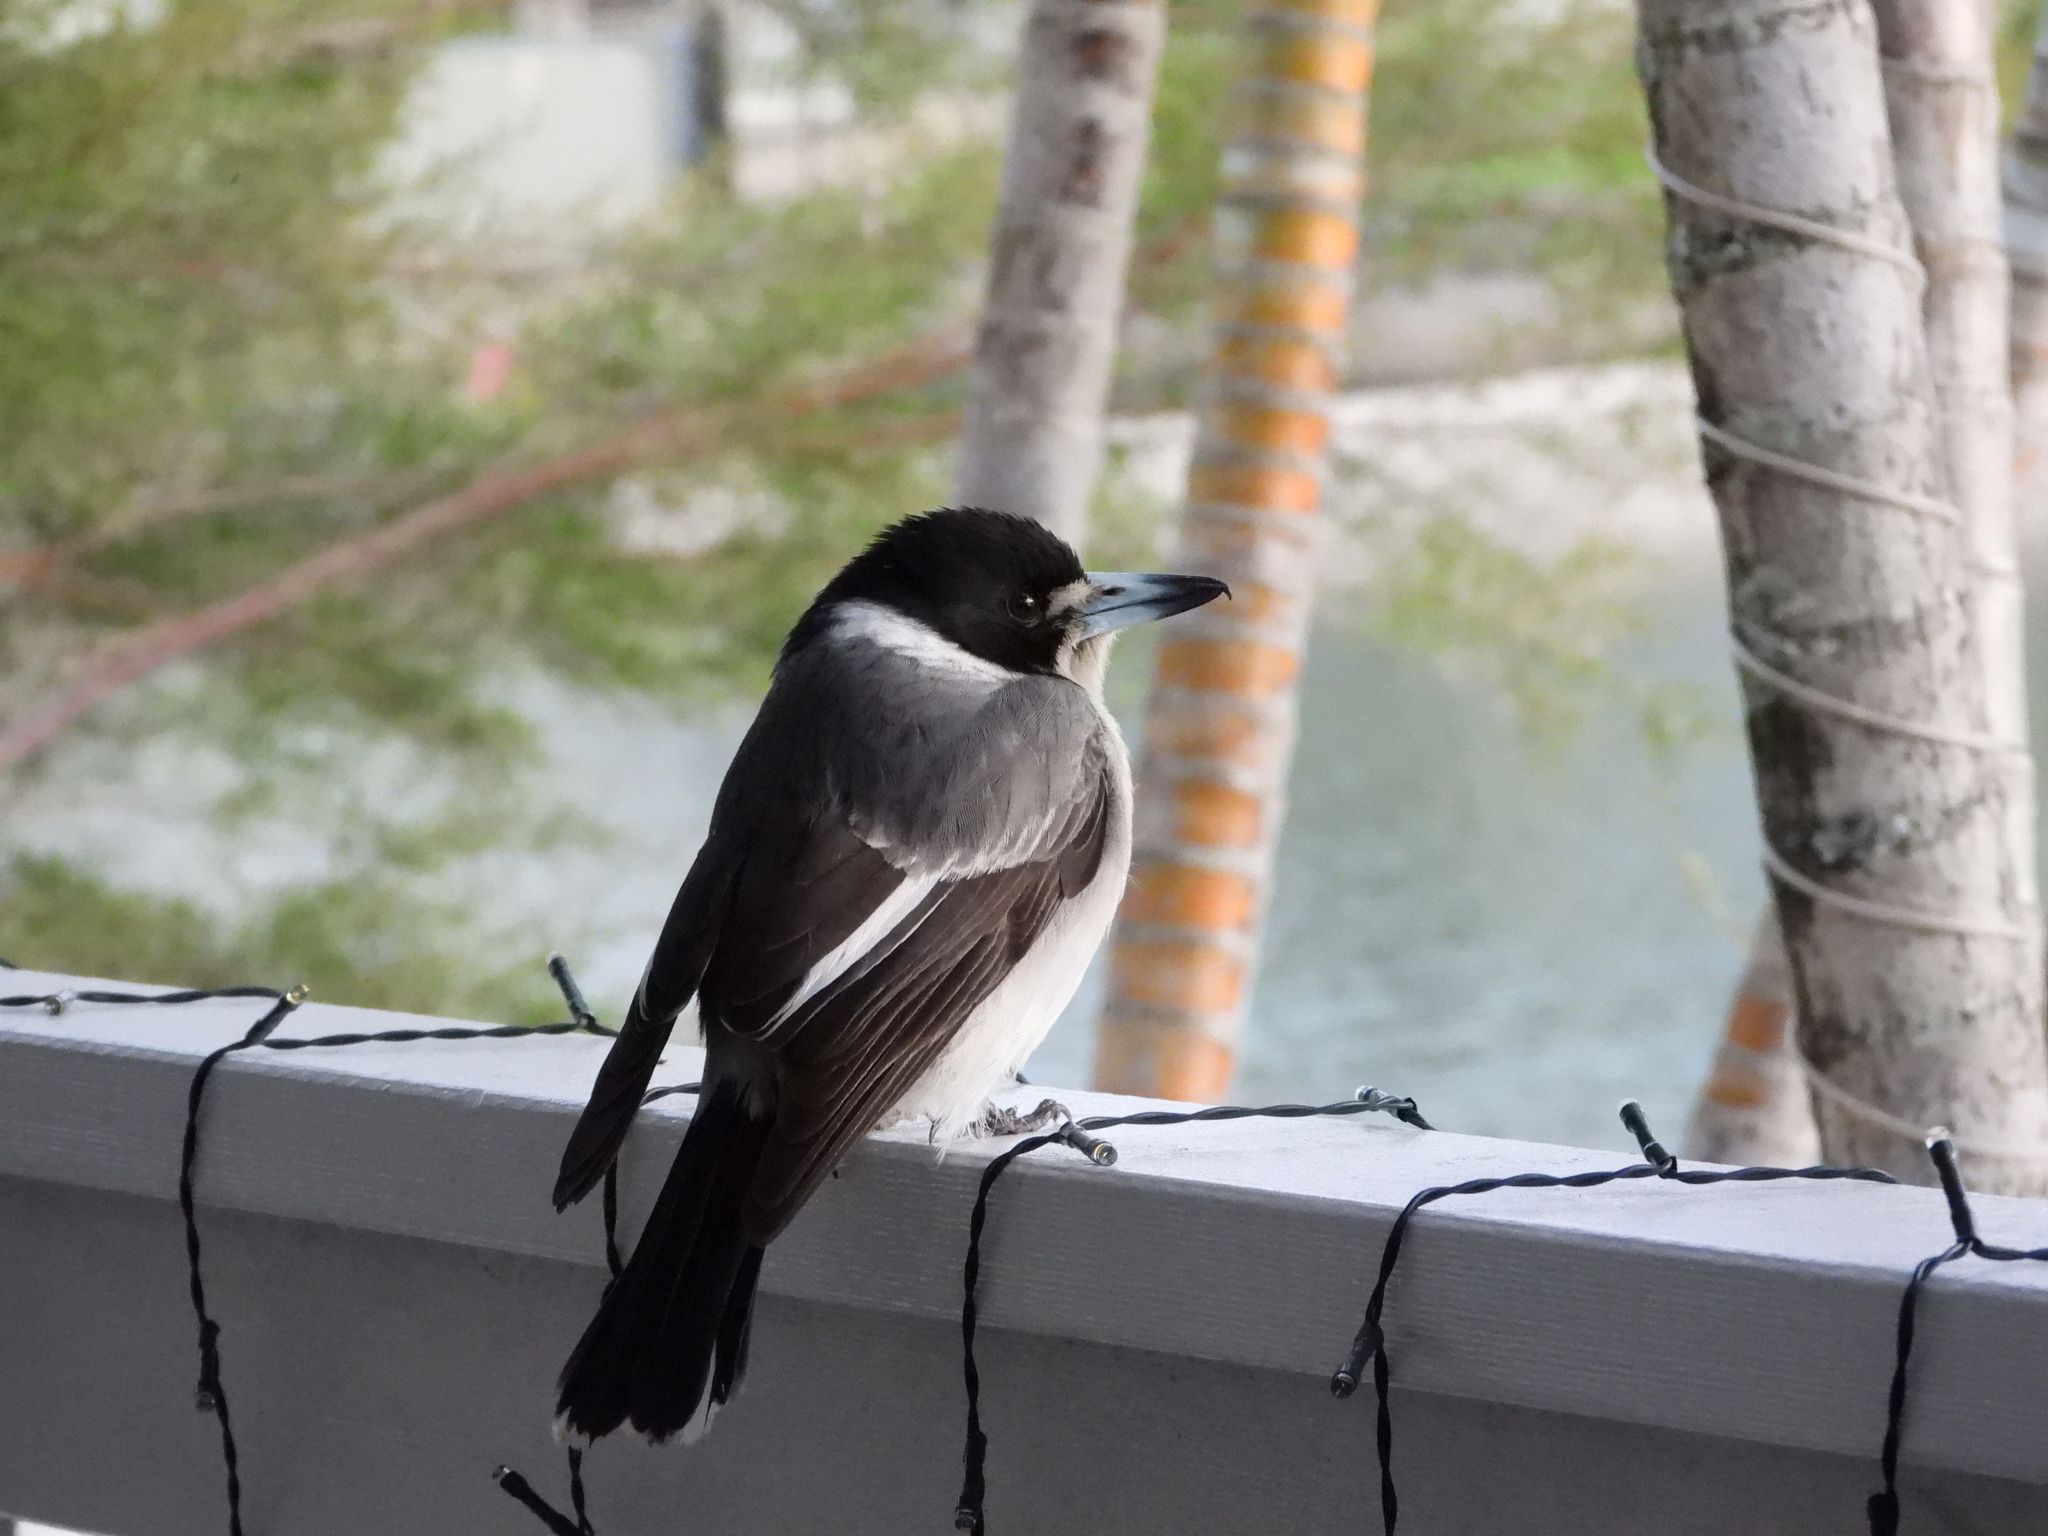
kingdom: Animalia
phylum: Chordata
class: Aves
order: Passeriformes
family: Cracticidae
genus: Cracticus
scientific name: Cracticus torquatus
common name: Grey butcherbird
